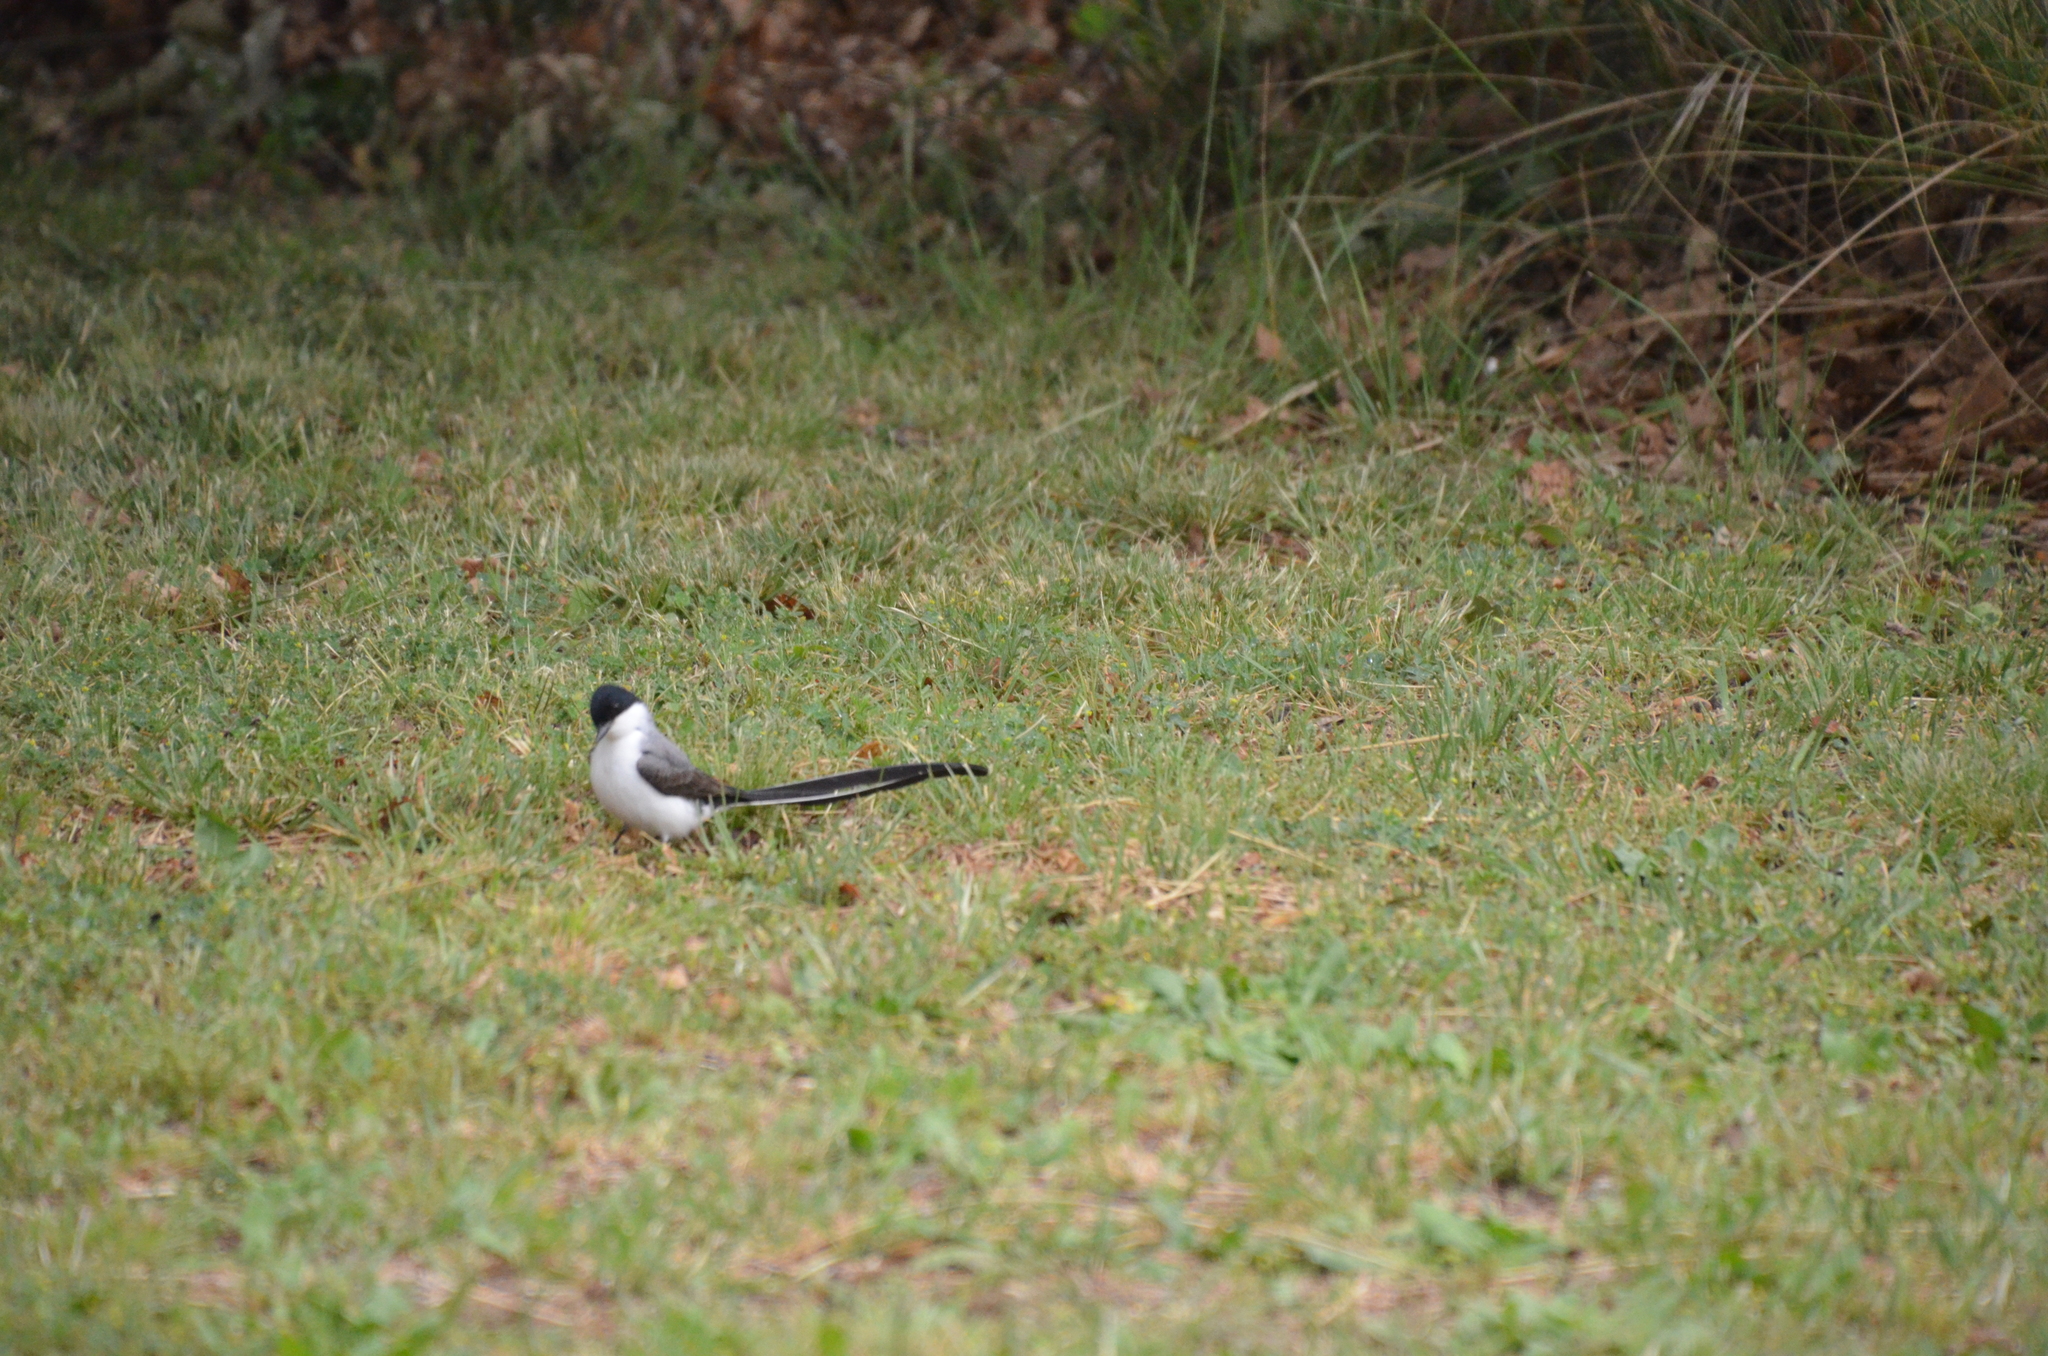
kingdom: Animalia
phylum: Chordata
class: Aves
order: Passeriformes
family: Tyrannidae
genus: Tyrannus
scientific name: Tyrannus savana
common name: Fork-tailed flycatcher
